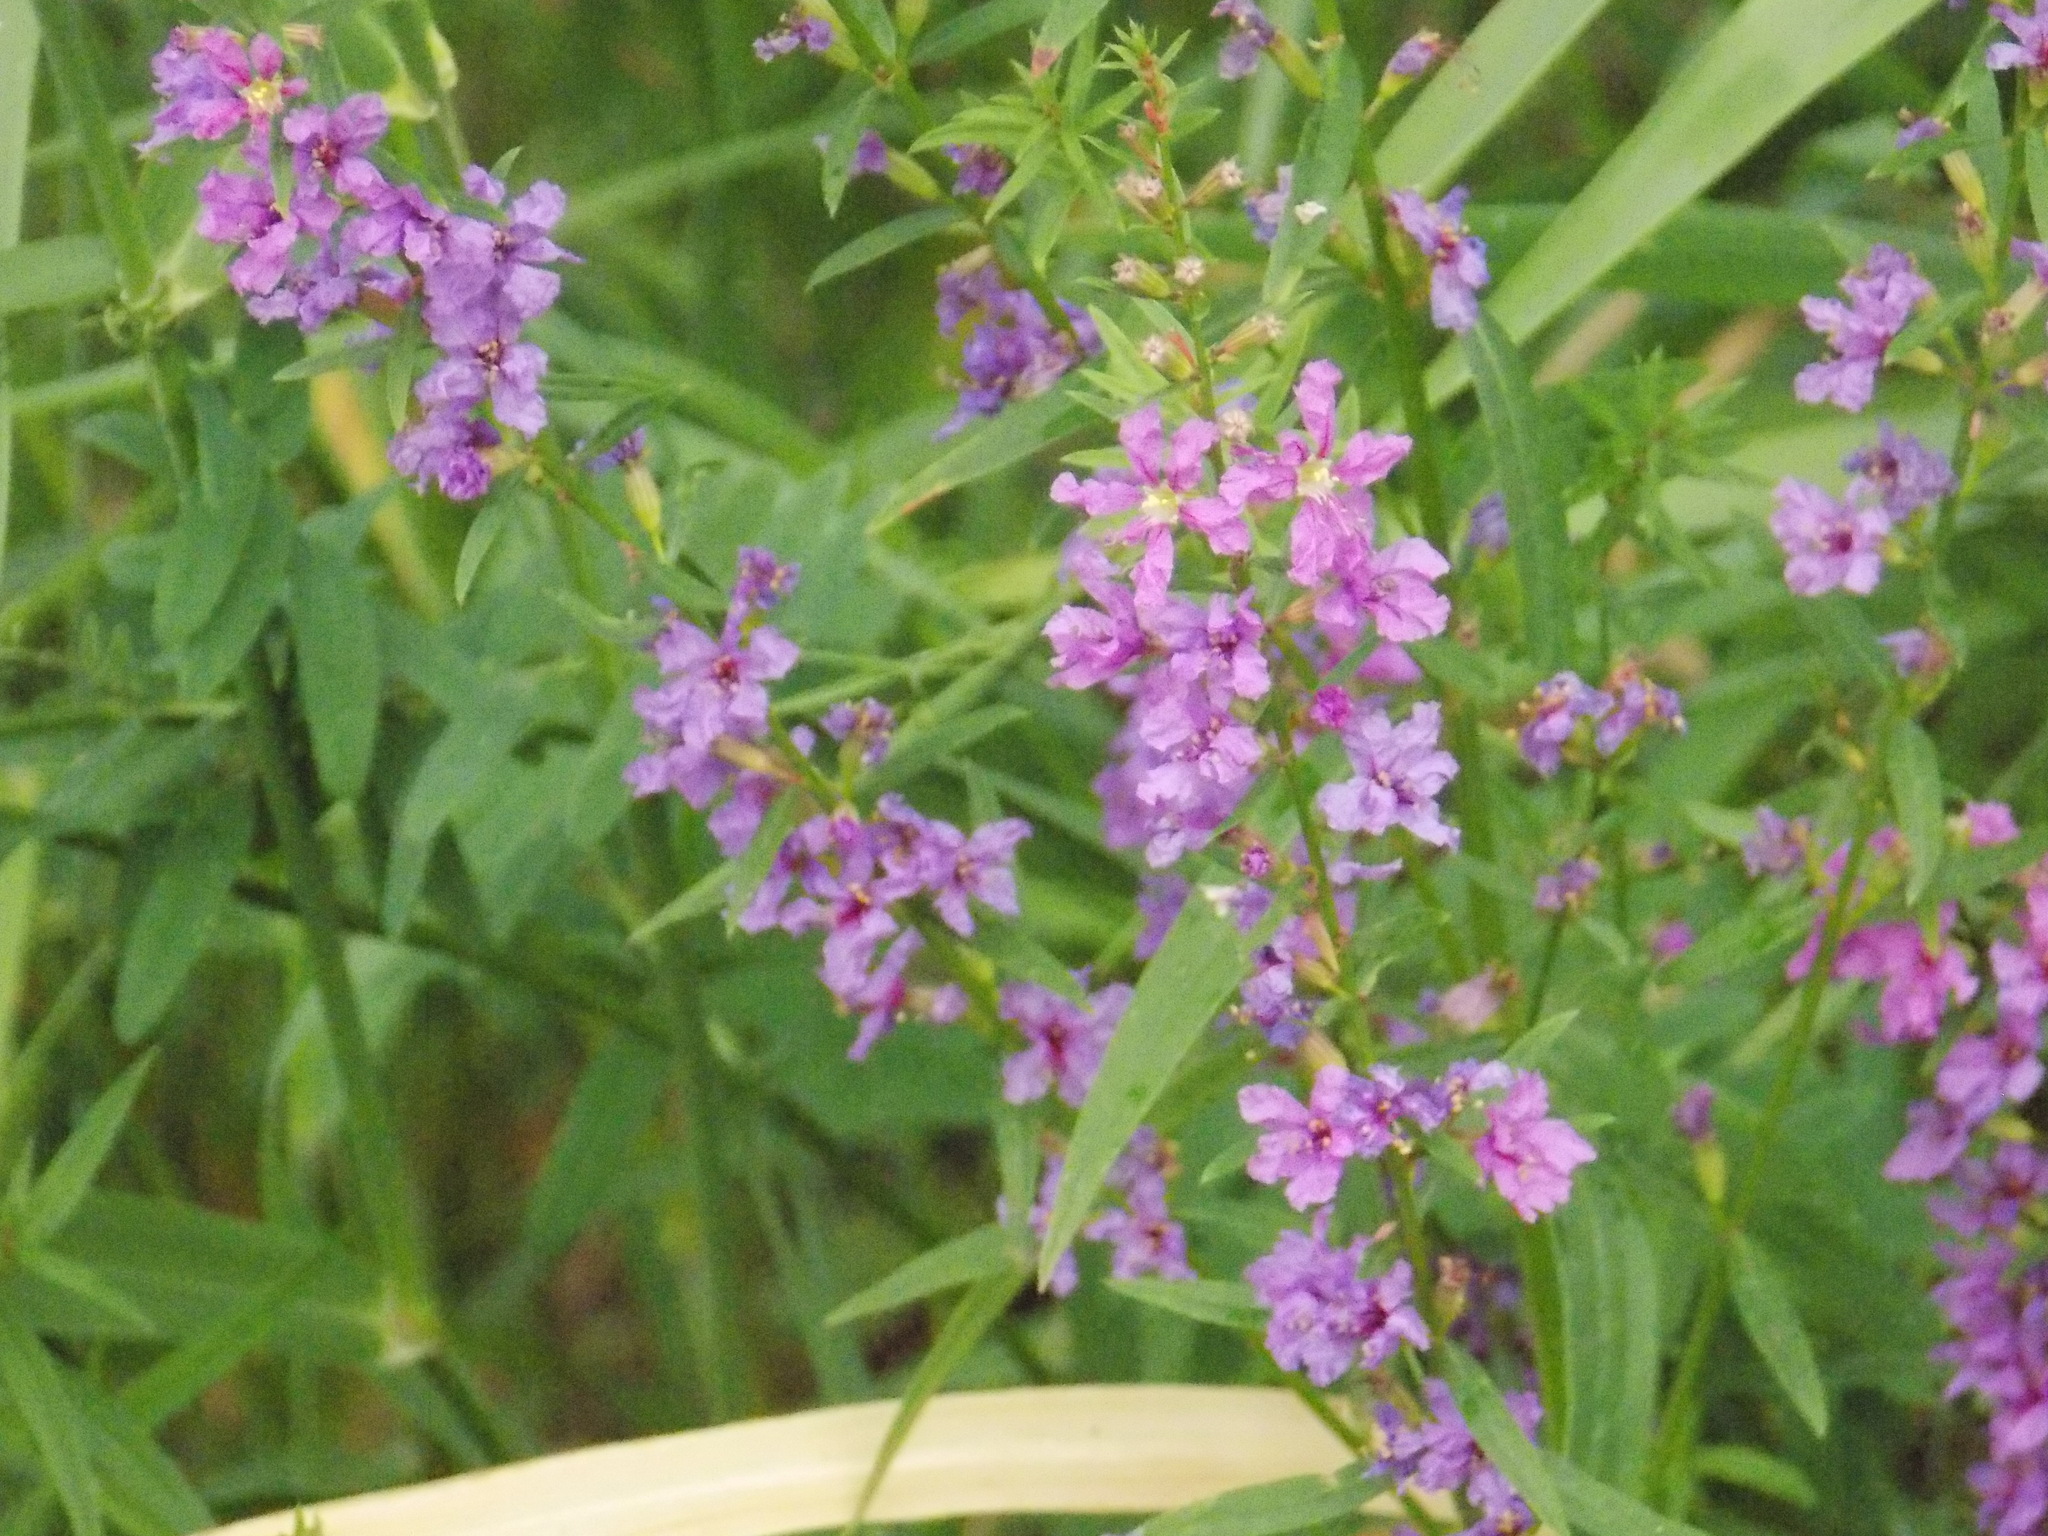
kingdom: Plantae
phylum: Tracheophyta
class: Magnoliopsida
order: Myrtales
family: Lythraceae
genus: Lythrum
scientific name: Lythrum virgatum
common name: European wand loosestrife
